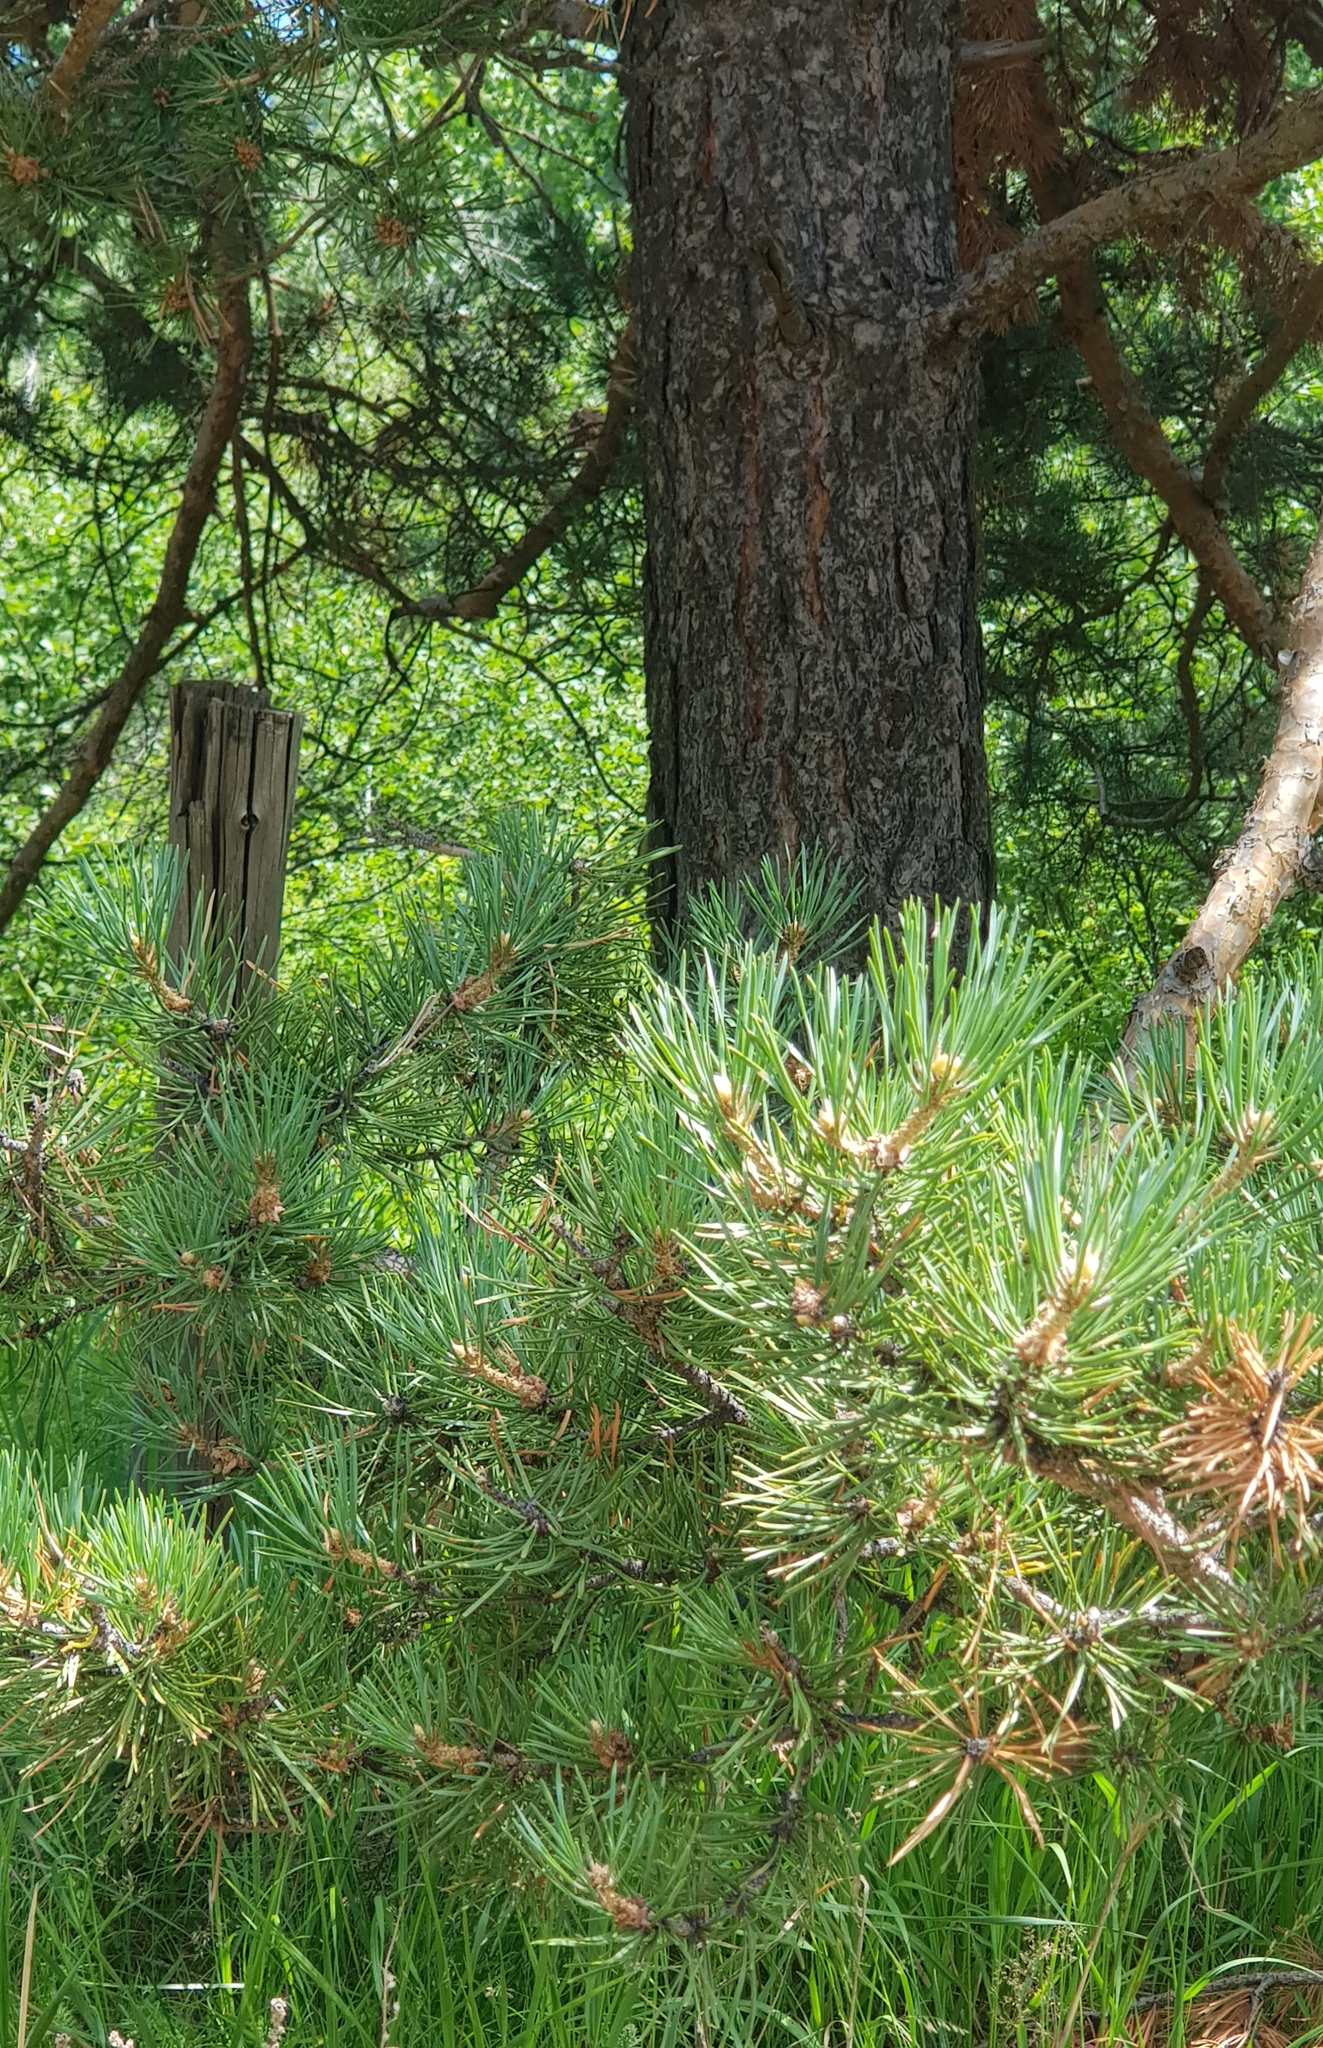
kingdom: Plantae
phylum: Tracheophyta
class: Pinopsida
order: Pinales
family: Pinaceae
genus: Pinus
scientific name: Pinus sylvestris
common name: Scots pine
